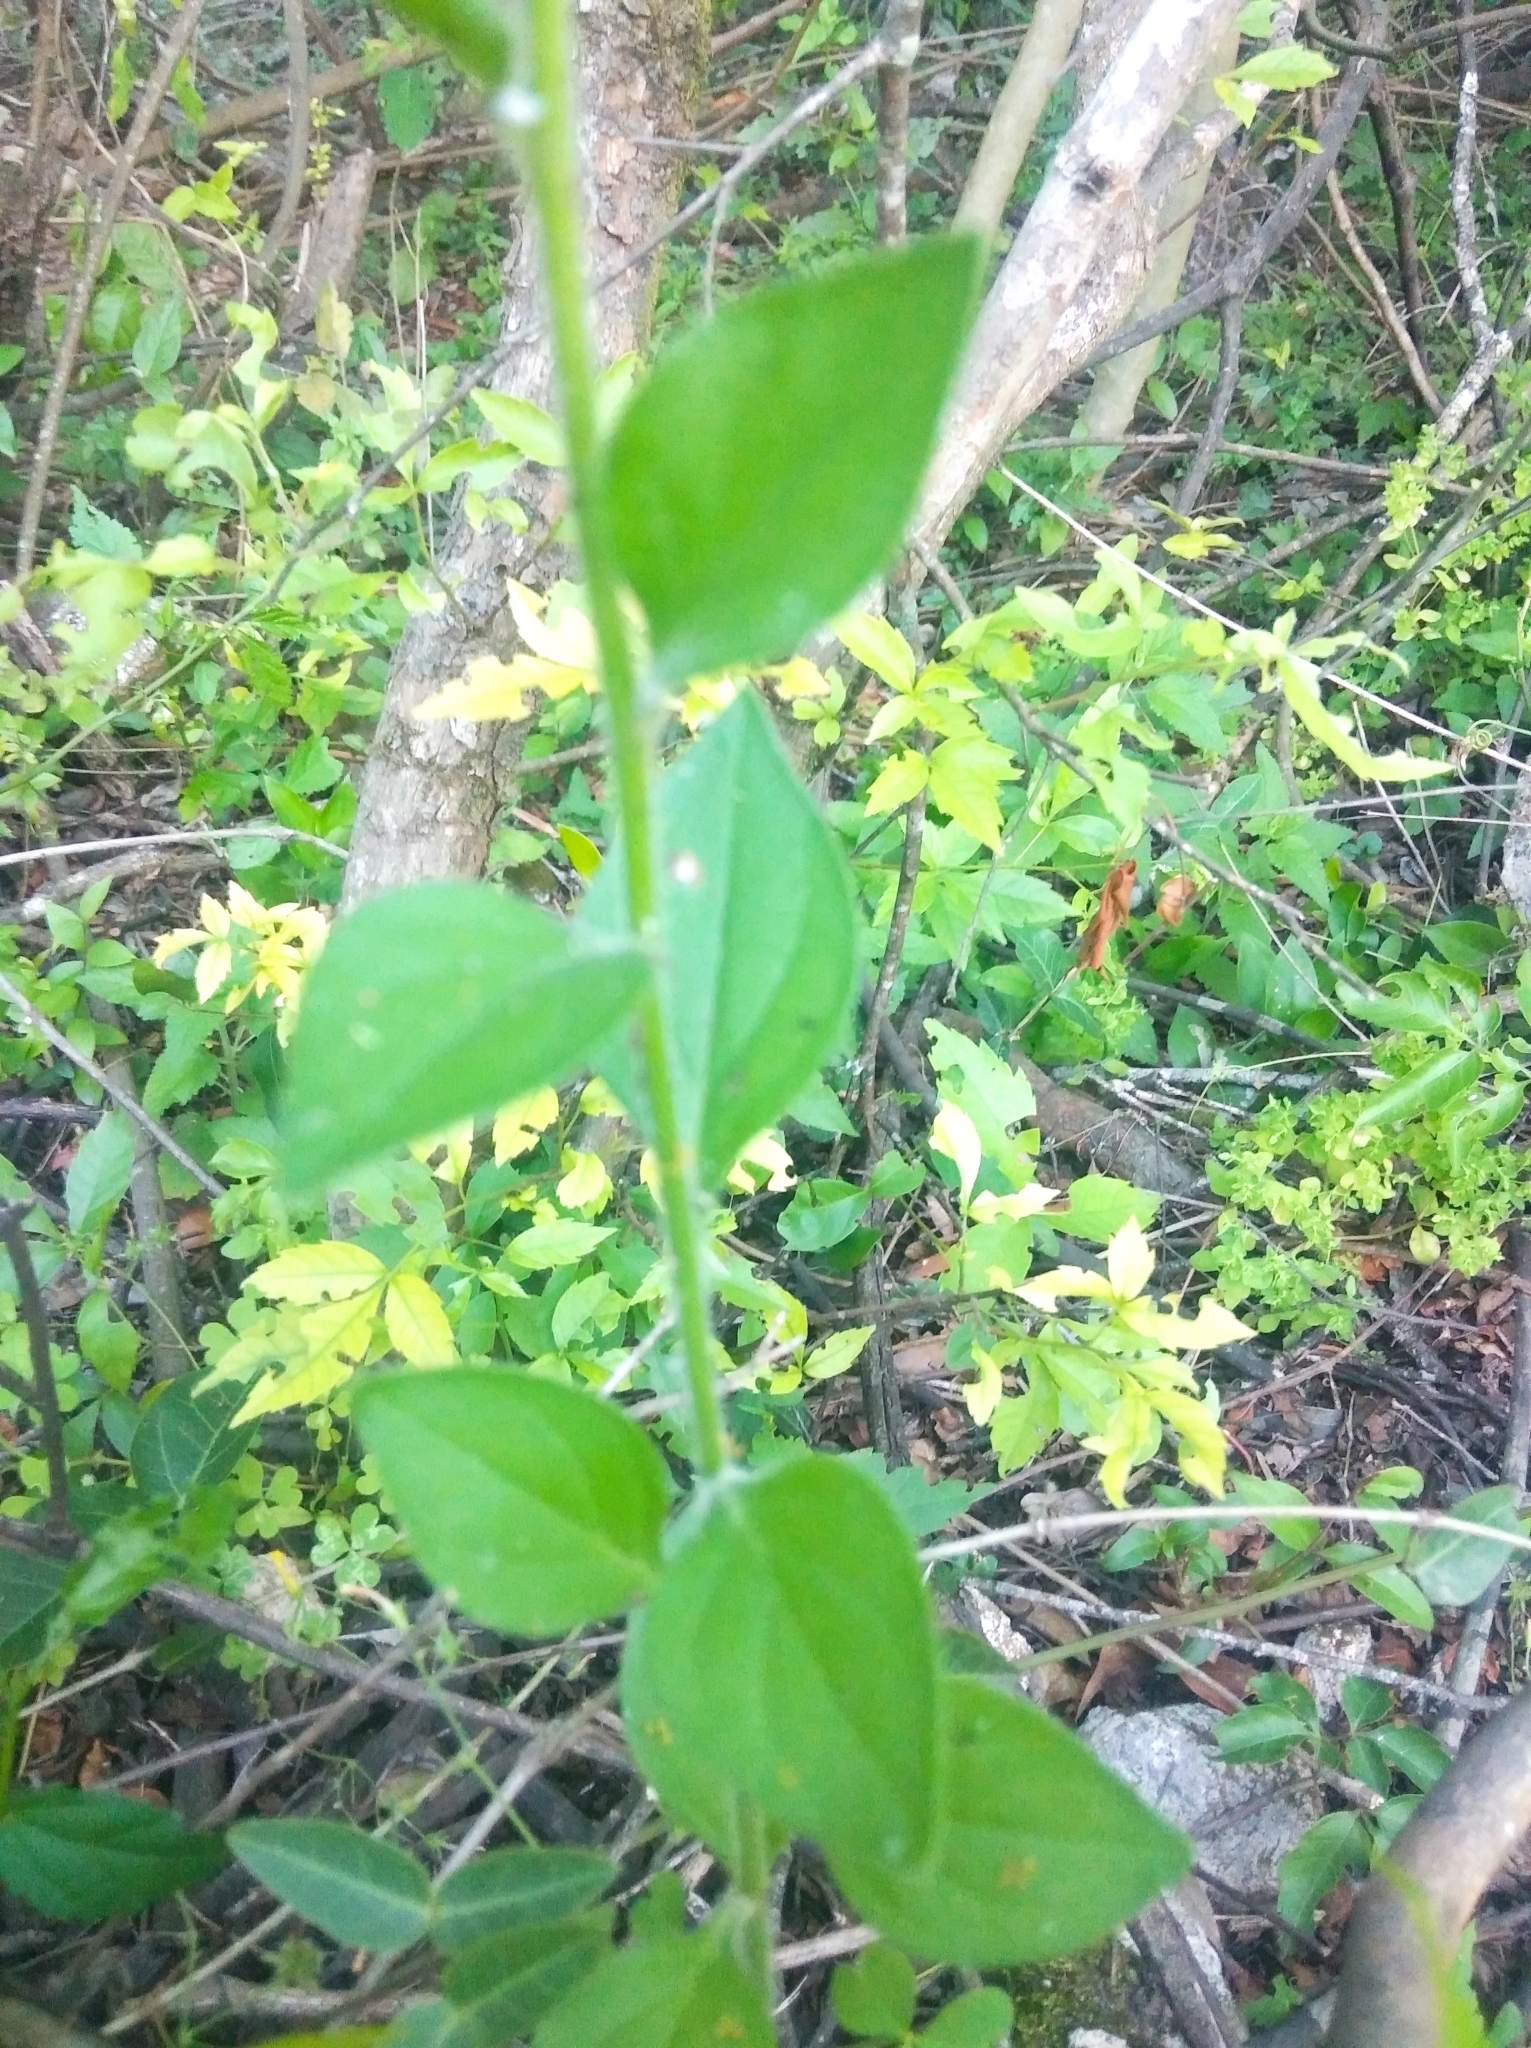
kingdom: Plantae
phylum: Tracheophyta
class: Magnoliopsida
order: Solanales
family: Solanaceae
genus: Petunia
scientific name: Petunia axillaris
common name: Large white petunia
